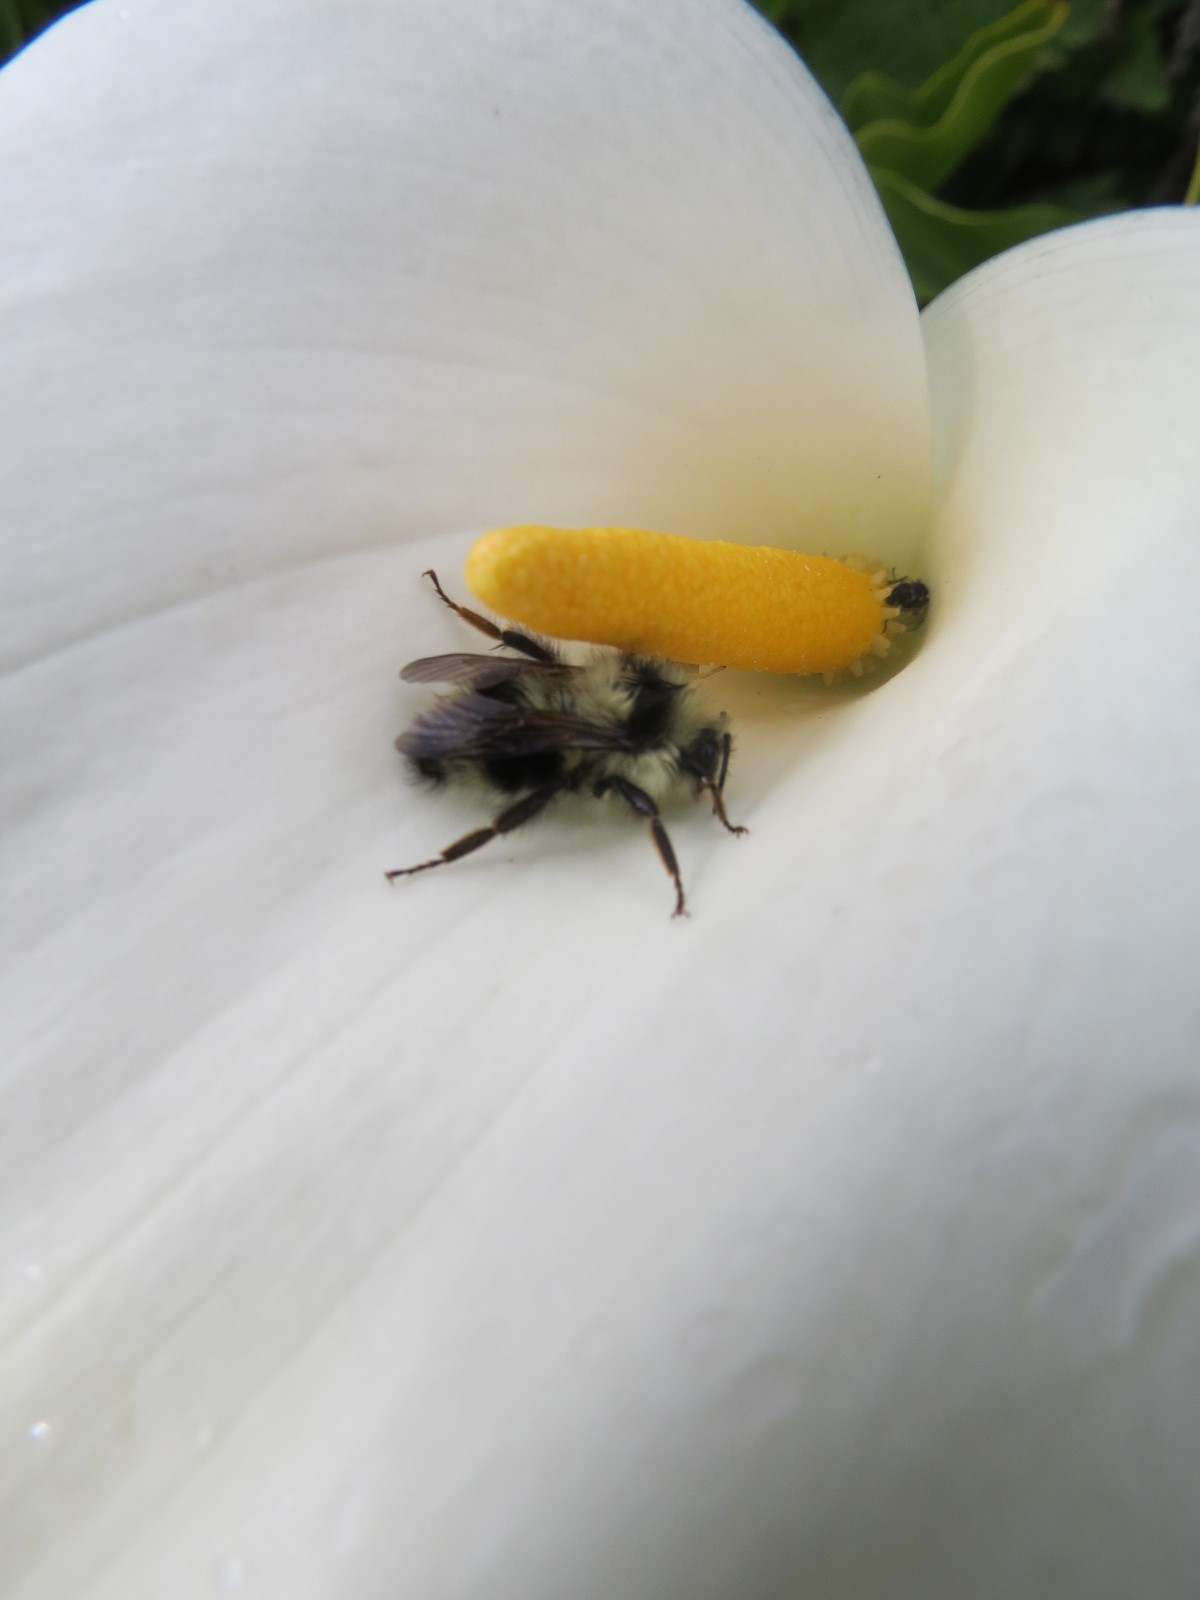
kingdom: Animalia
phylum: Arthropoda
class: Insecta
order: Hymenoptera
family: Apidae
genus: Bombus
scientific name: Bombus melanopygus
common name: Black tail bumble bee
